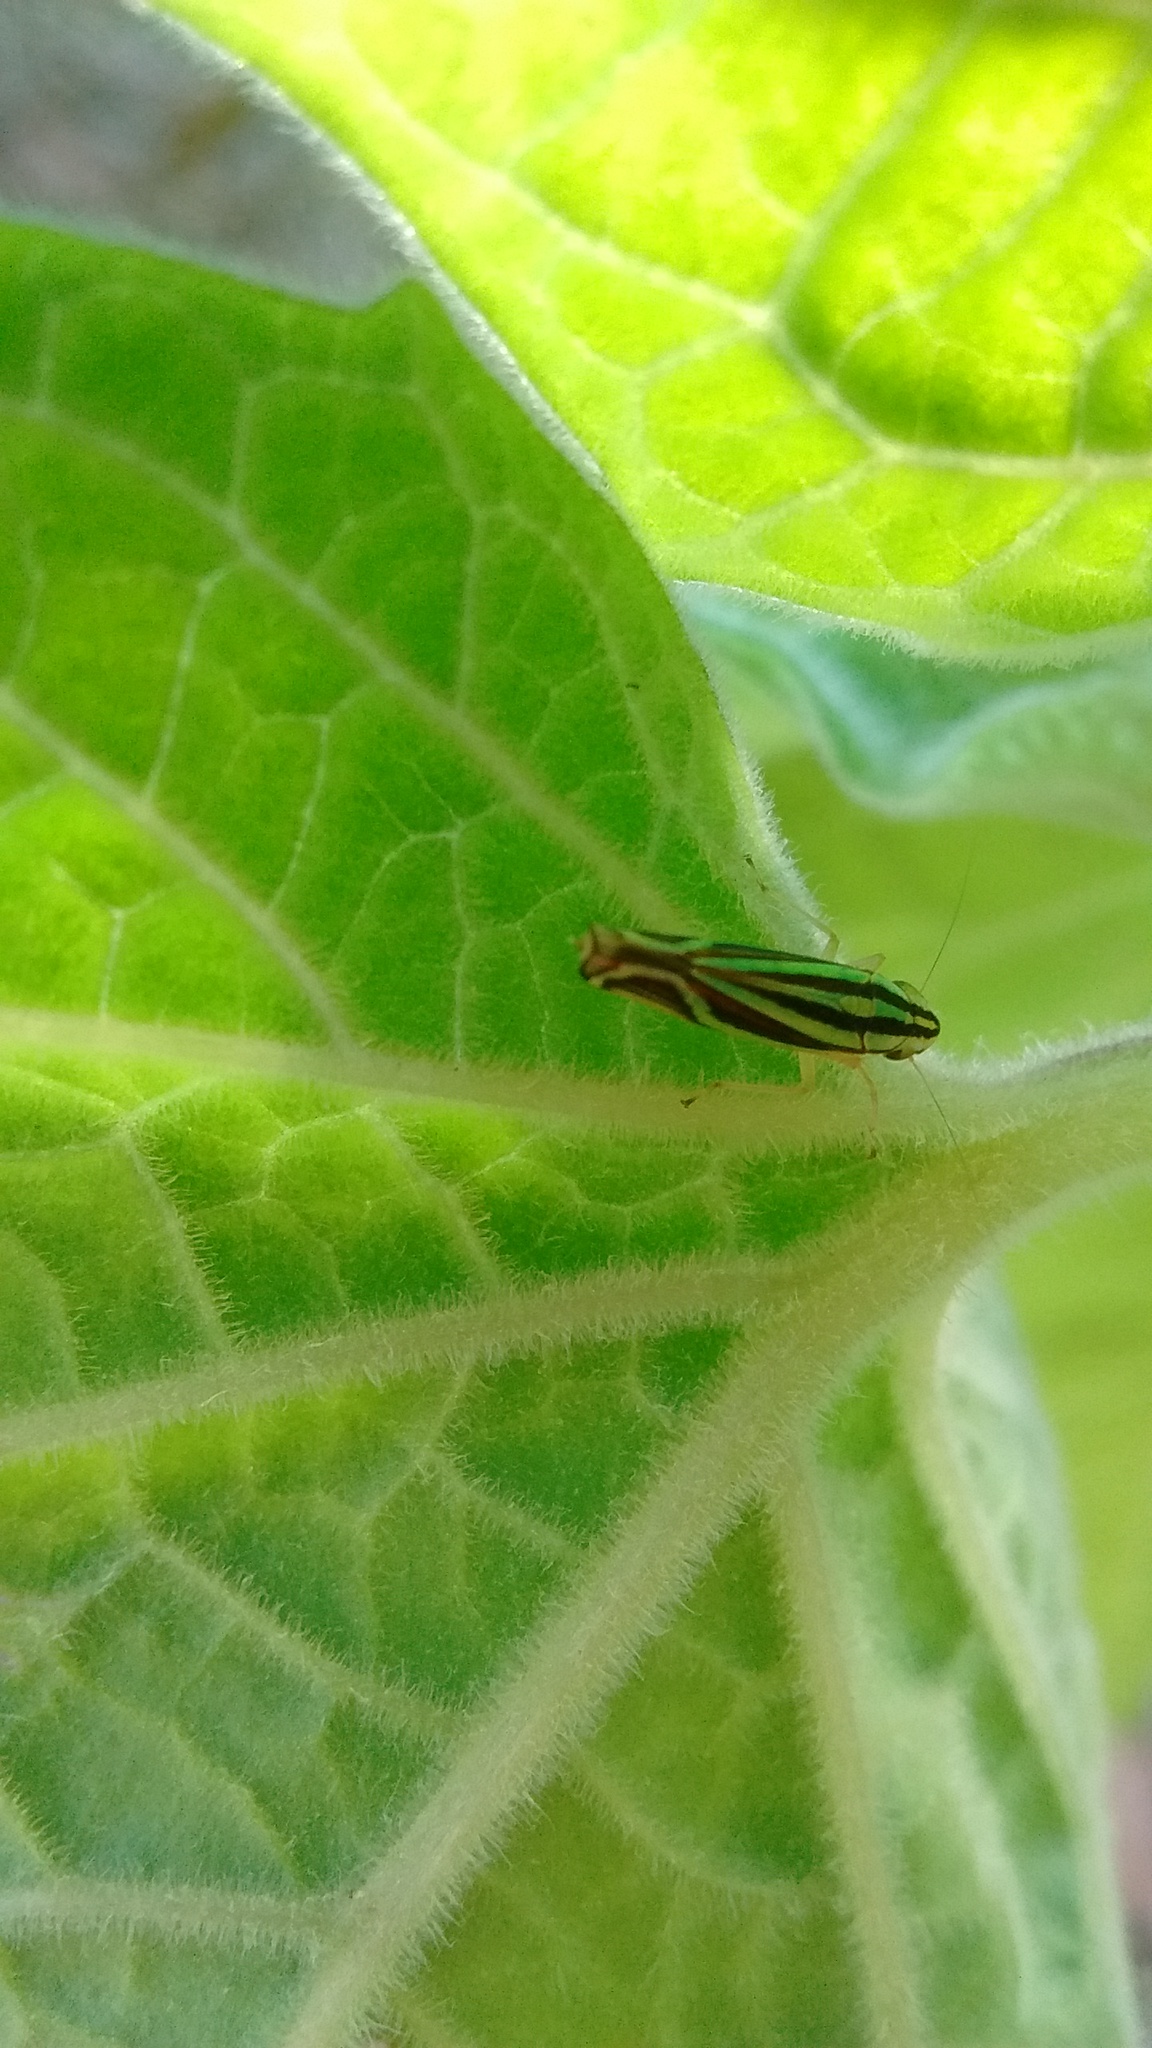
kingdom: Animalia
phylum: Arthropoda
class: Insecta
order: Hemiptera
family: Cicadellidae
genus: Sibovia
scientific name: Sibovia sagata
